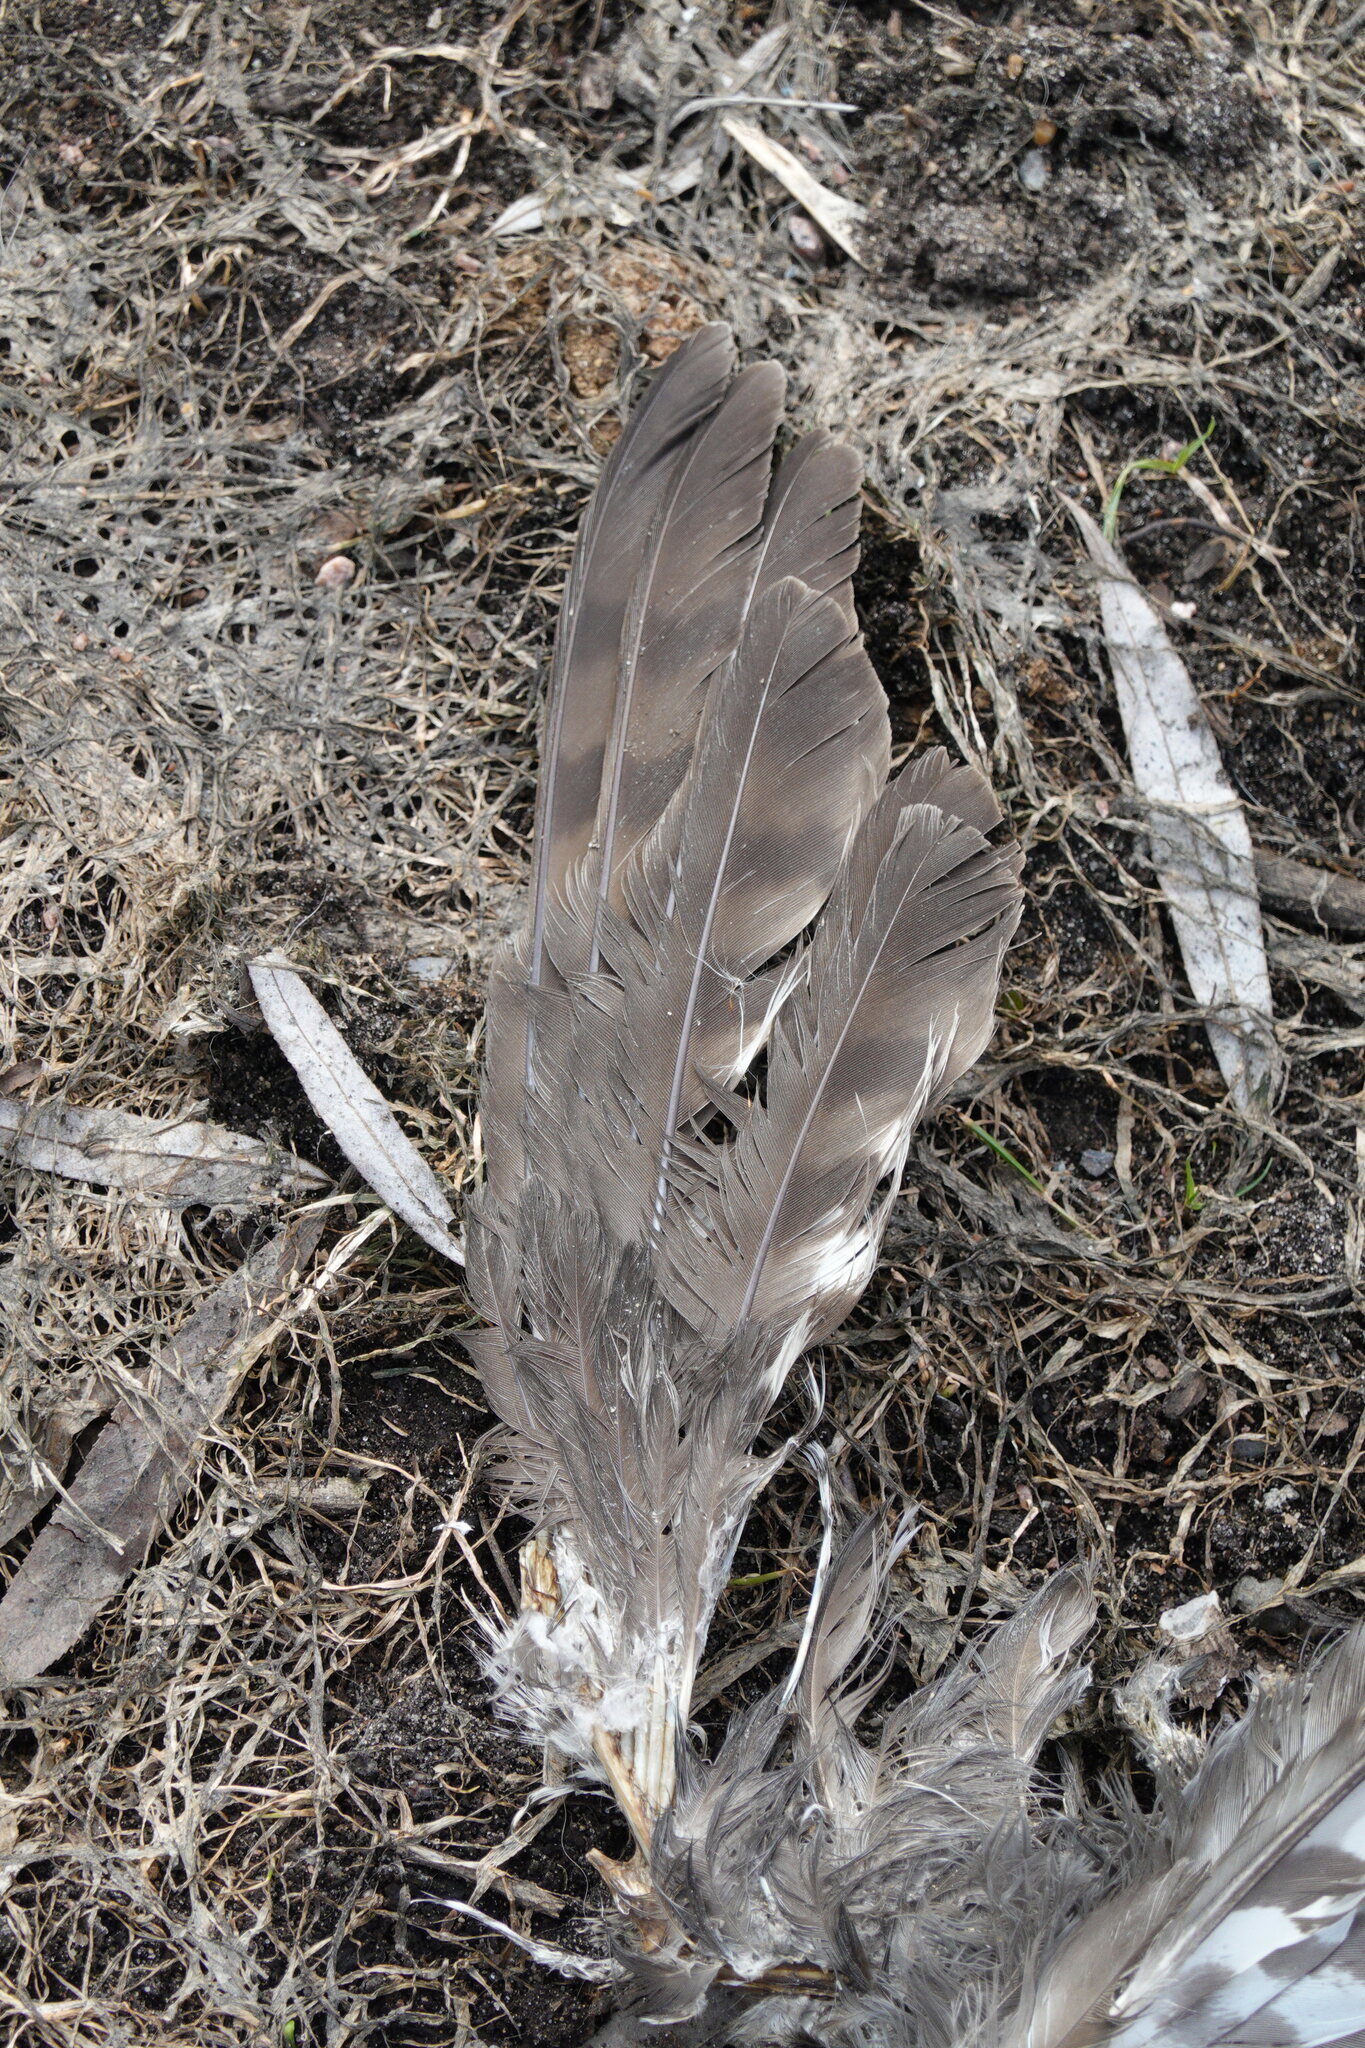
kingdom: Animalia
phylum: Chordata
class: Aves
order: Accipitriformes
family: Accipitridae
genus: Accipiter
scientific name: Accipiter nisus
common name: Eurasian sparrowhawk
